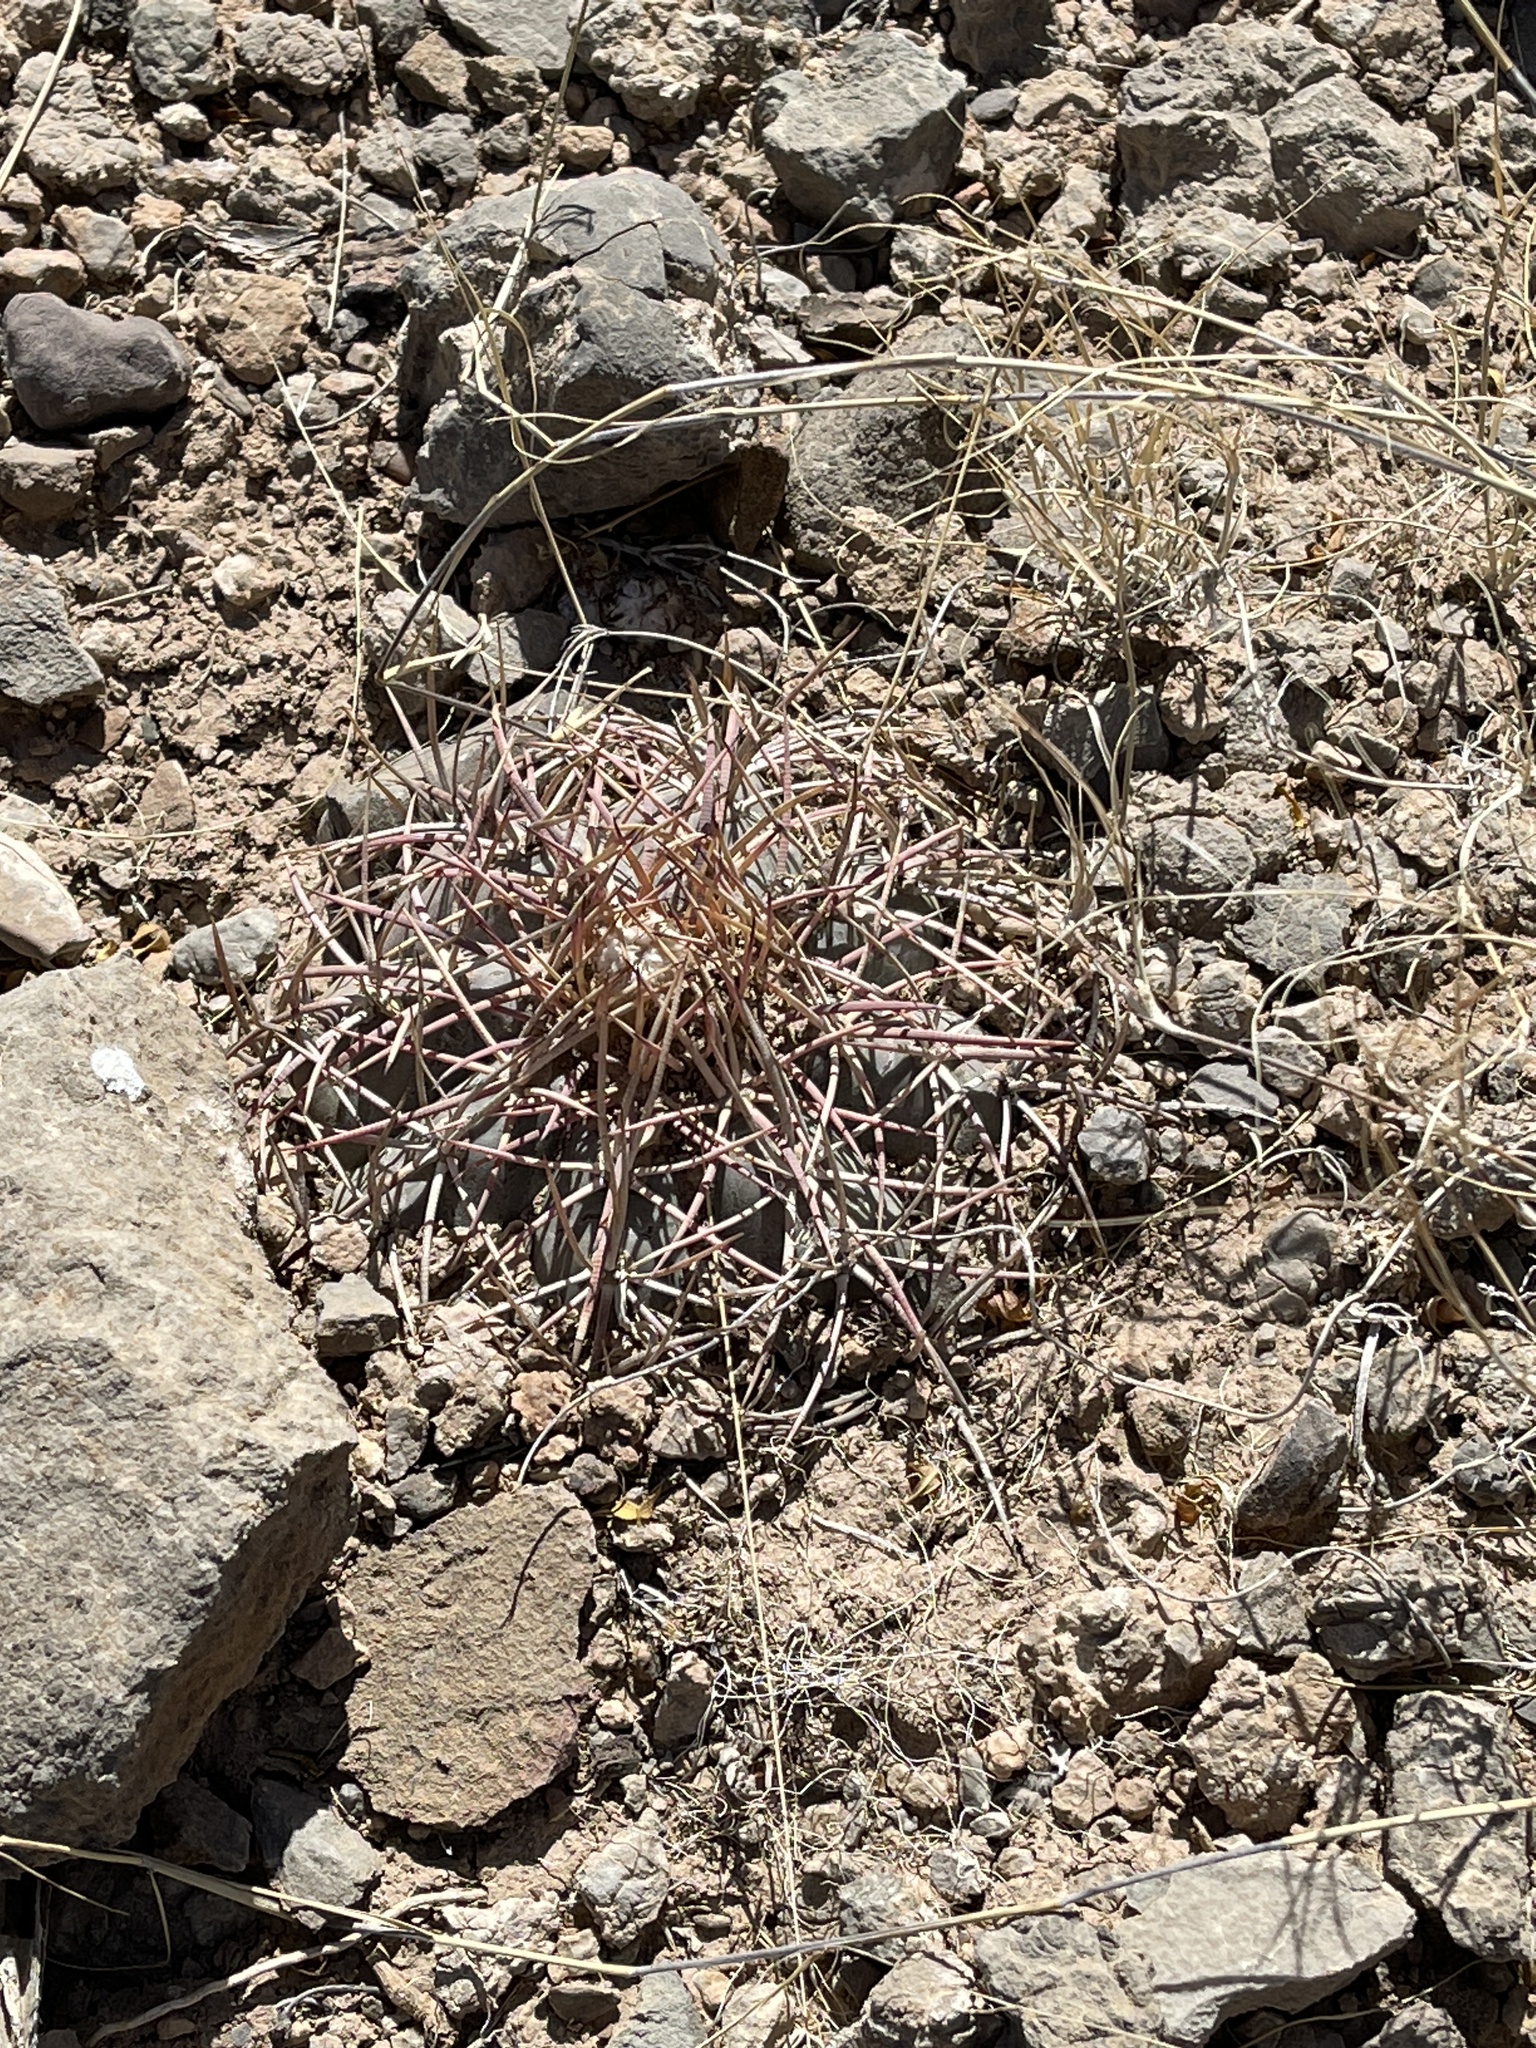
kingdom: Plantae
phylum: Tracheophyta
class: Magnoliopsida
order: Caryophyllales
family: Cactaceae
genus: Echinocactus
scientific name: Echinocactus horizonthalonius
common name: Devilshead
